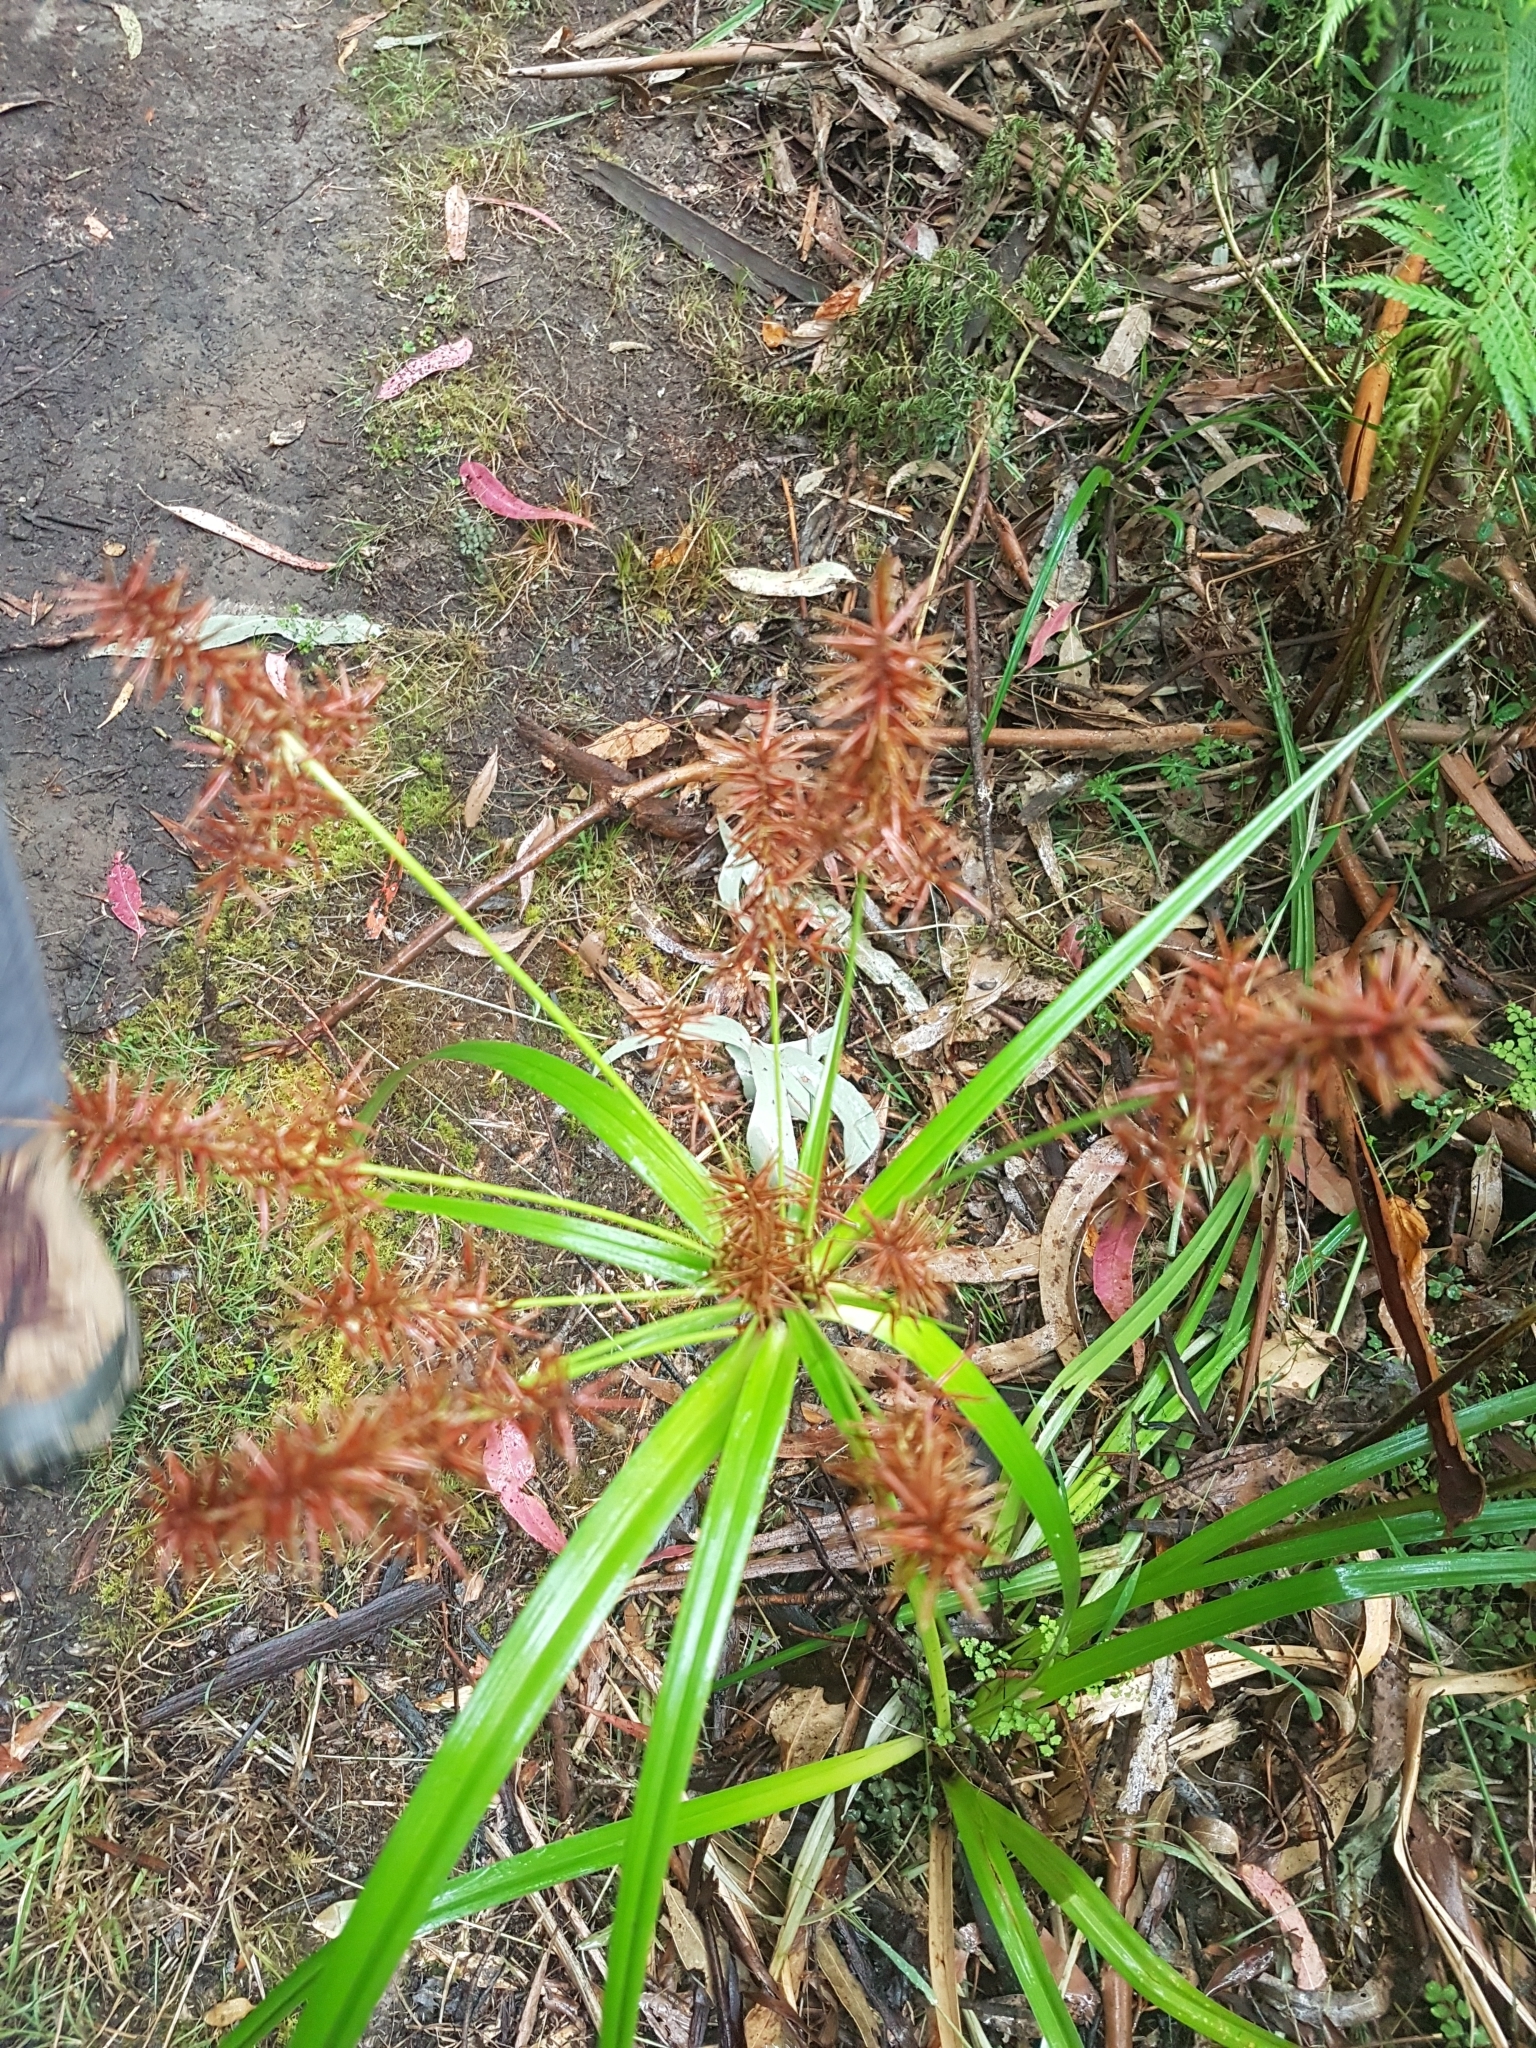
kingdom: Plantae
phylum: Tracheophyta
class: Liliopsida
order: Poales
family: Cyperaceae
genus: Cyperus
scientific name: Cyperus lucidus
